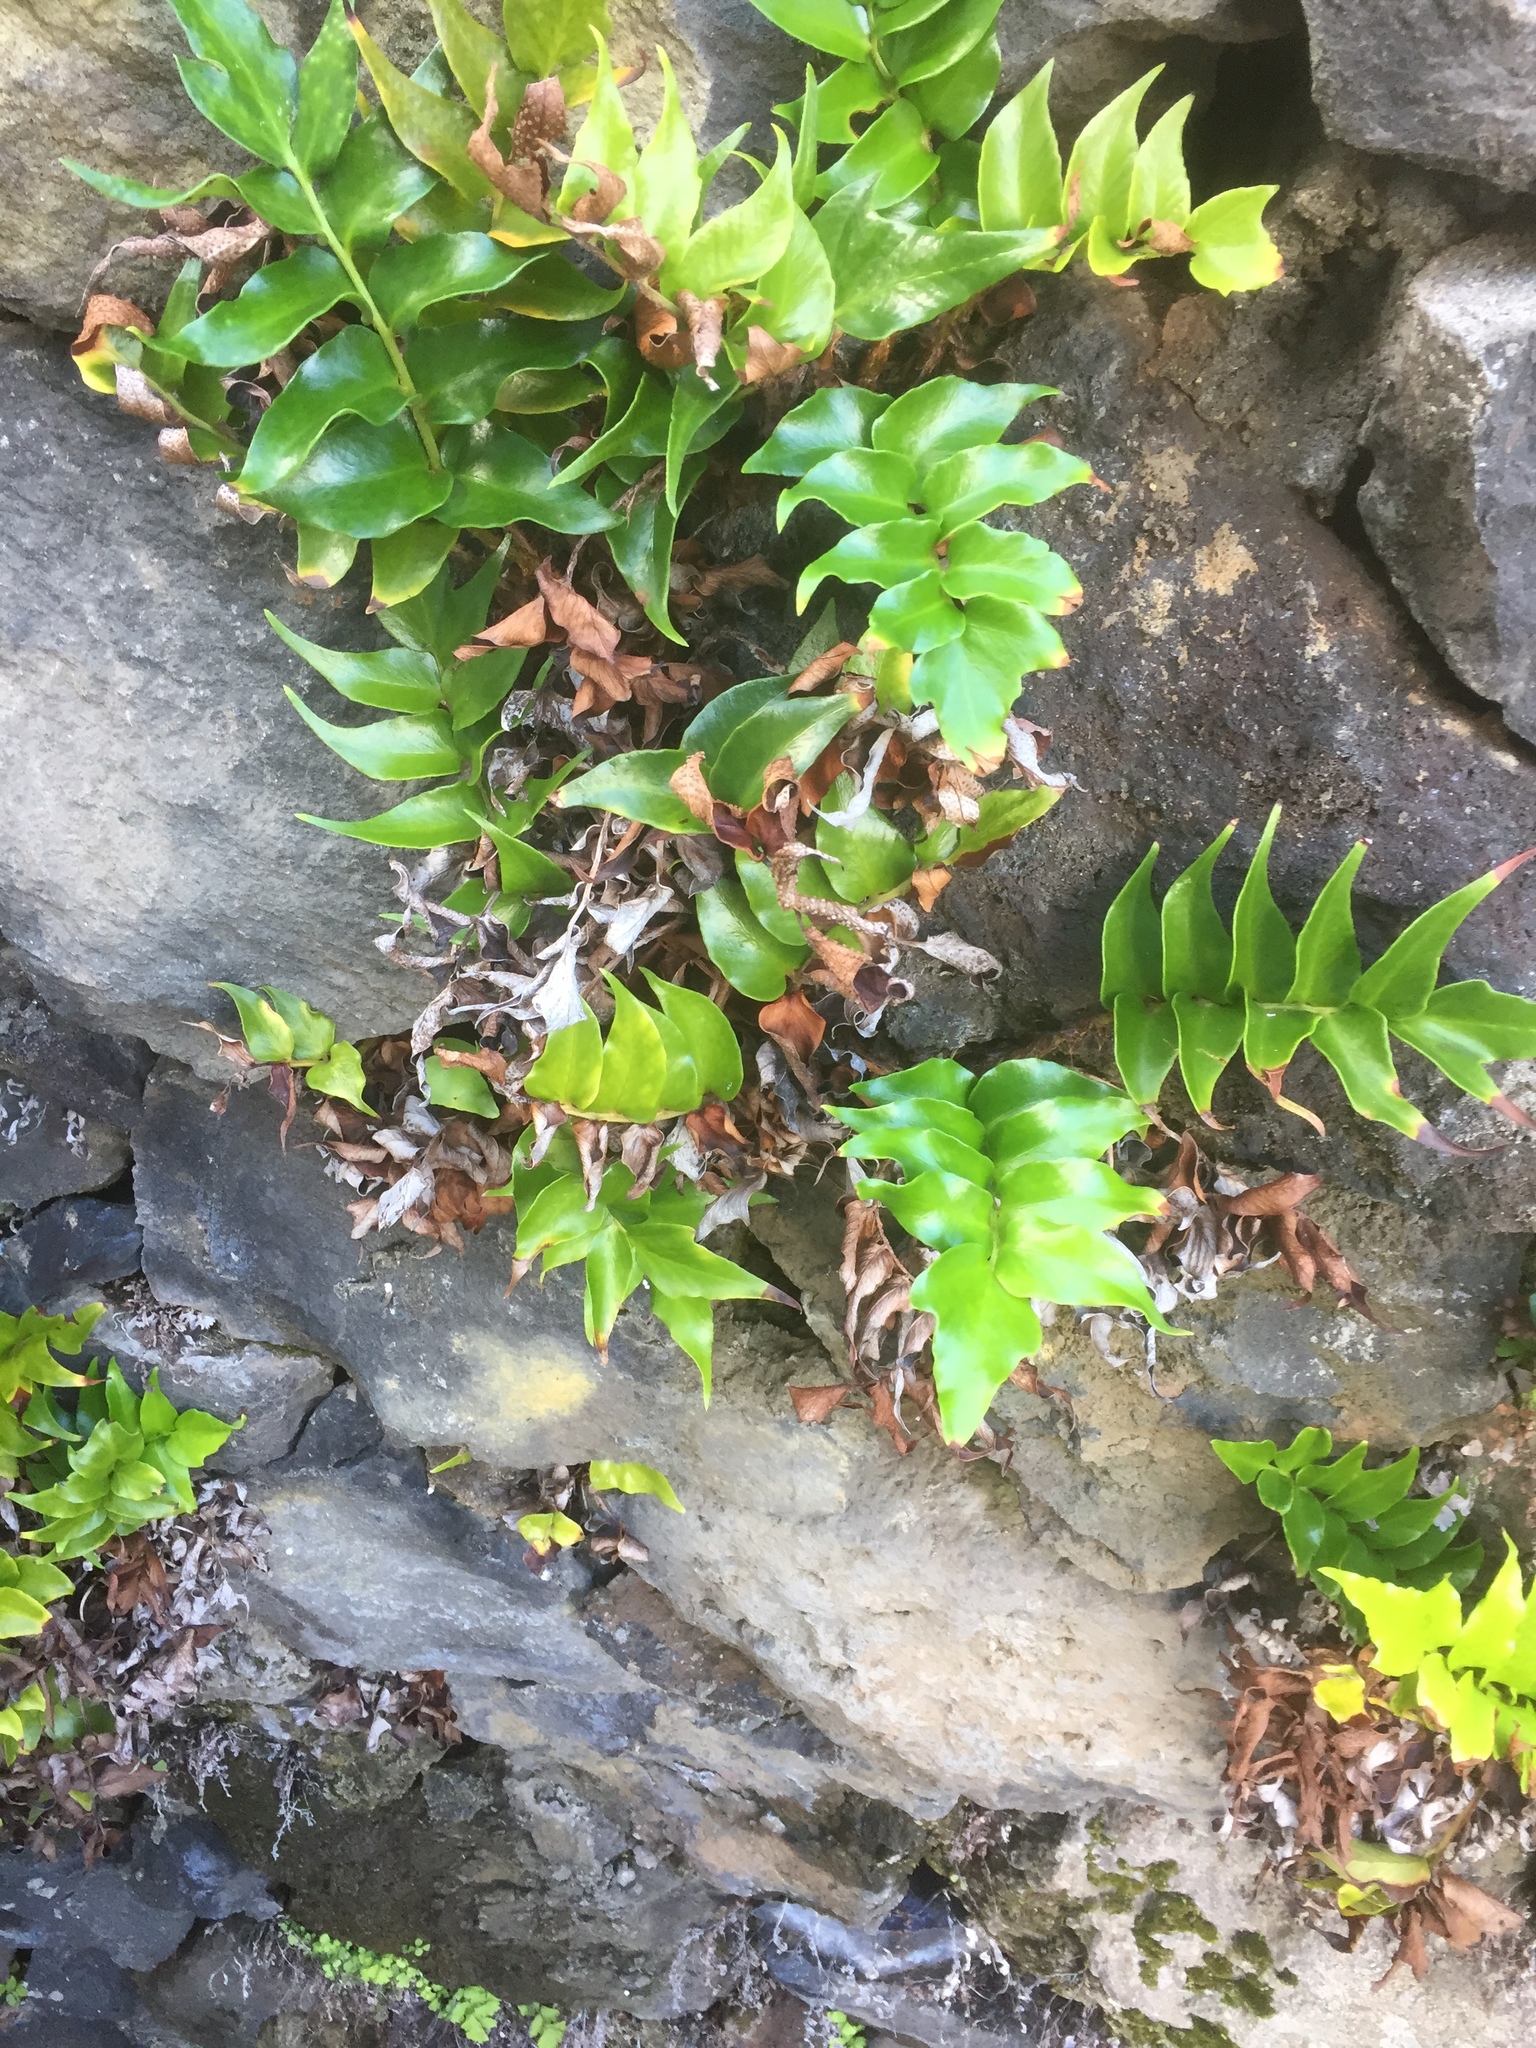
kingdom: Plantae
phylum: Tracheophyta
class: Polypodiopsida
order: Polypodiales
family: Dryopteridaceae
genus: Cyrtomium
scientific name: Cyrtomium falcatum
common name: House holly-fern
